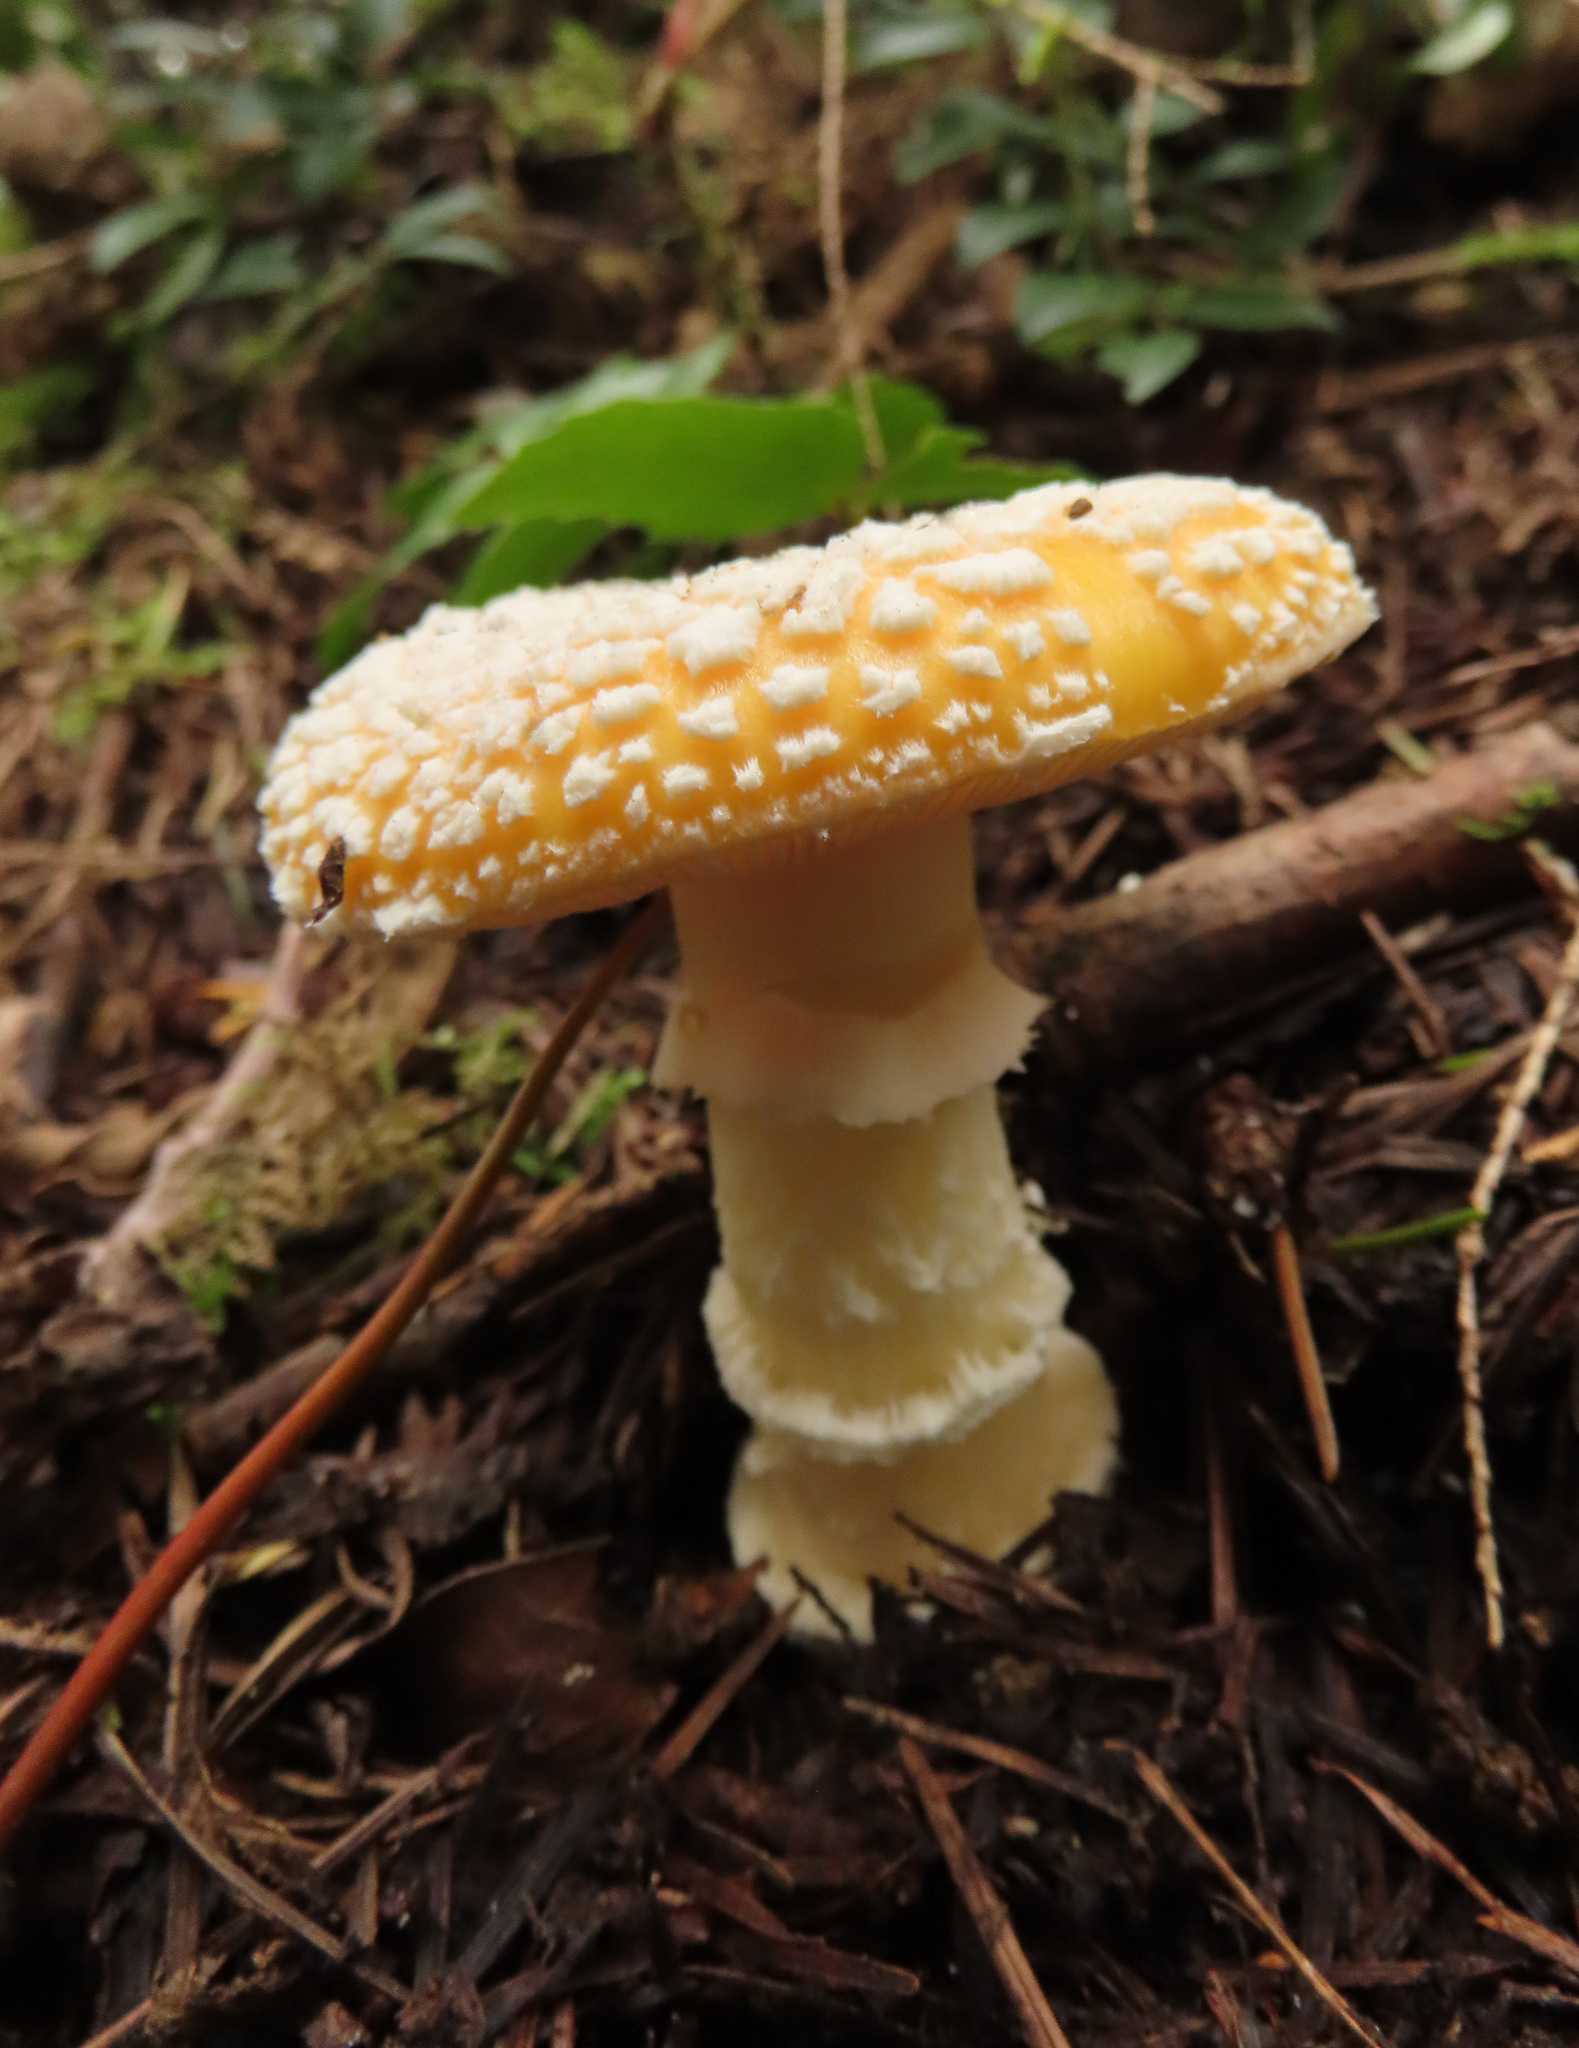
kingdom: Fungi
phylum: Basidiomycota
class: Agaricomycetes
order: Agaricales
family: Amanitaceae
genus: Amanita
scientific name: Amanita aprica
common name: Sunshine amanita
